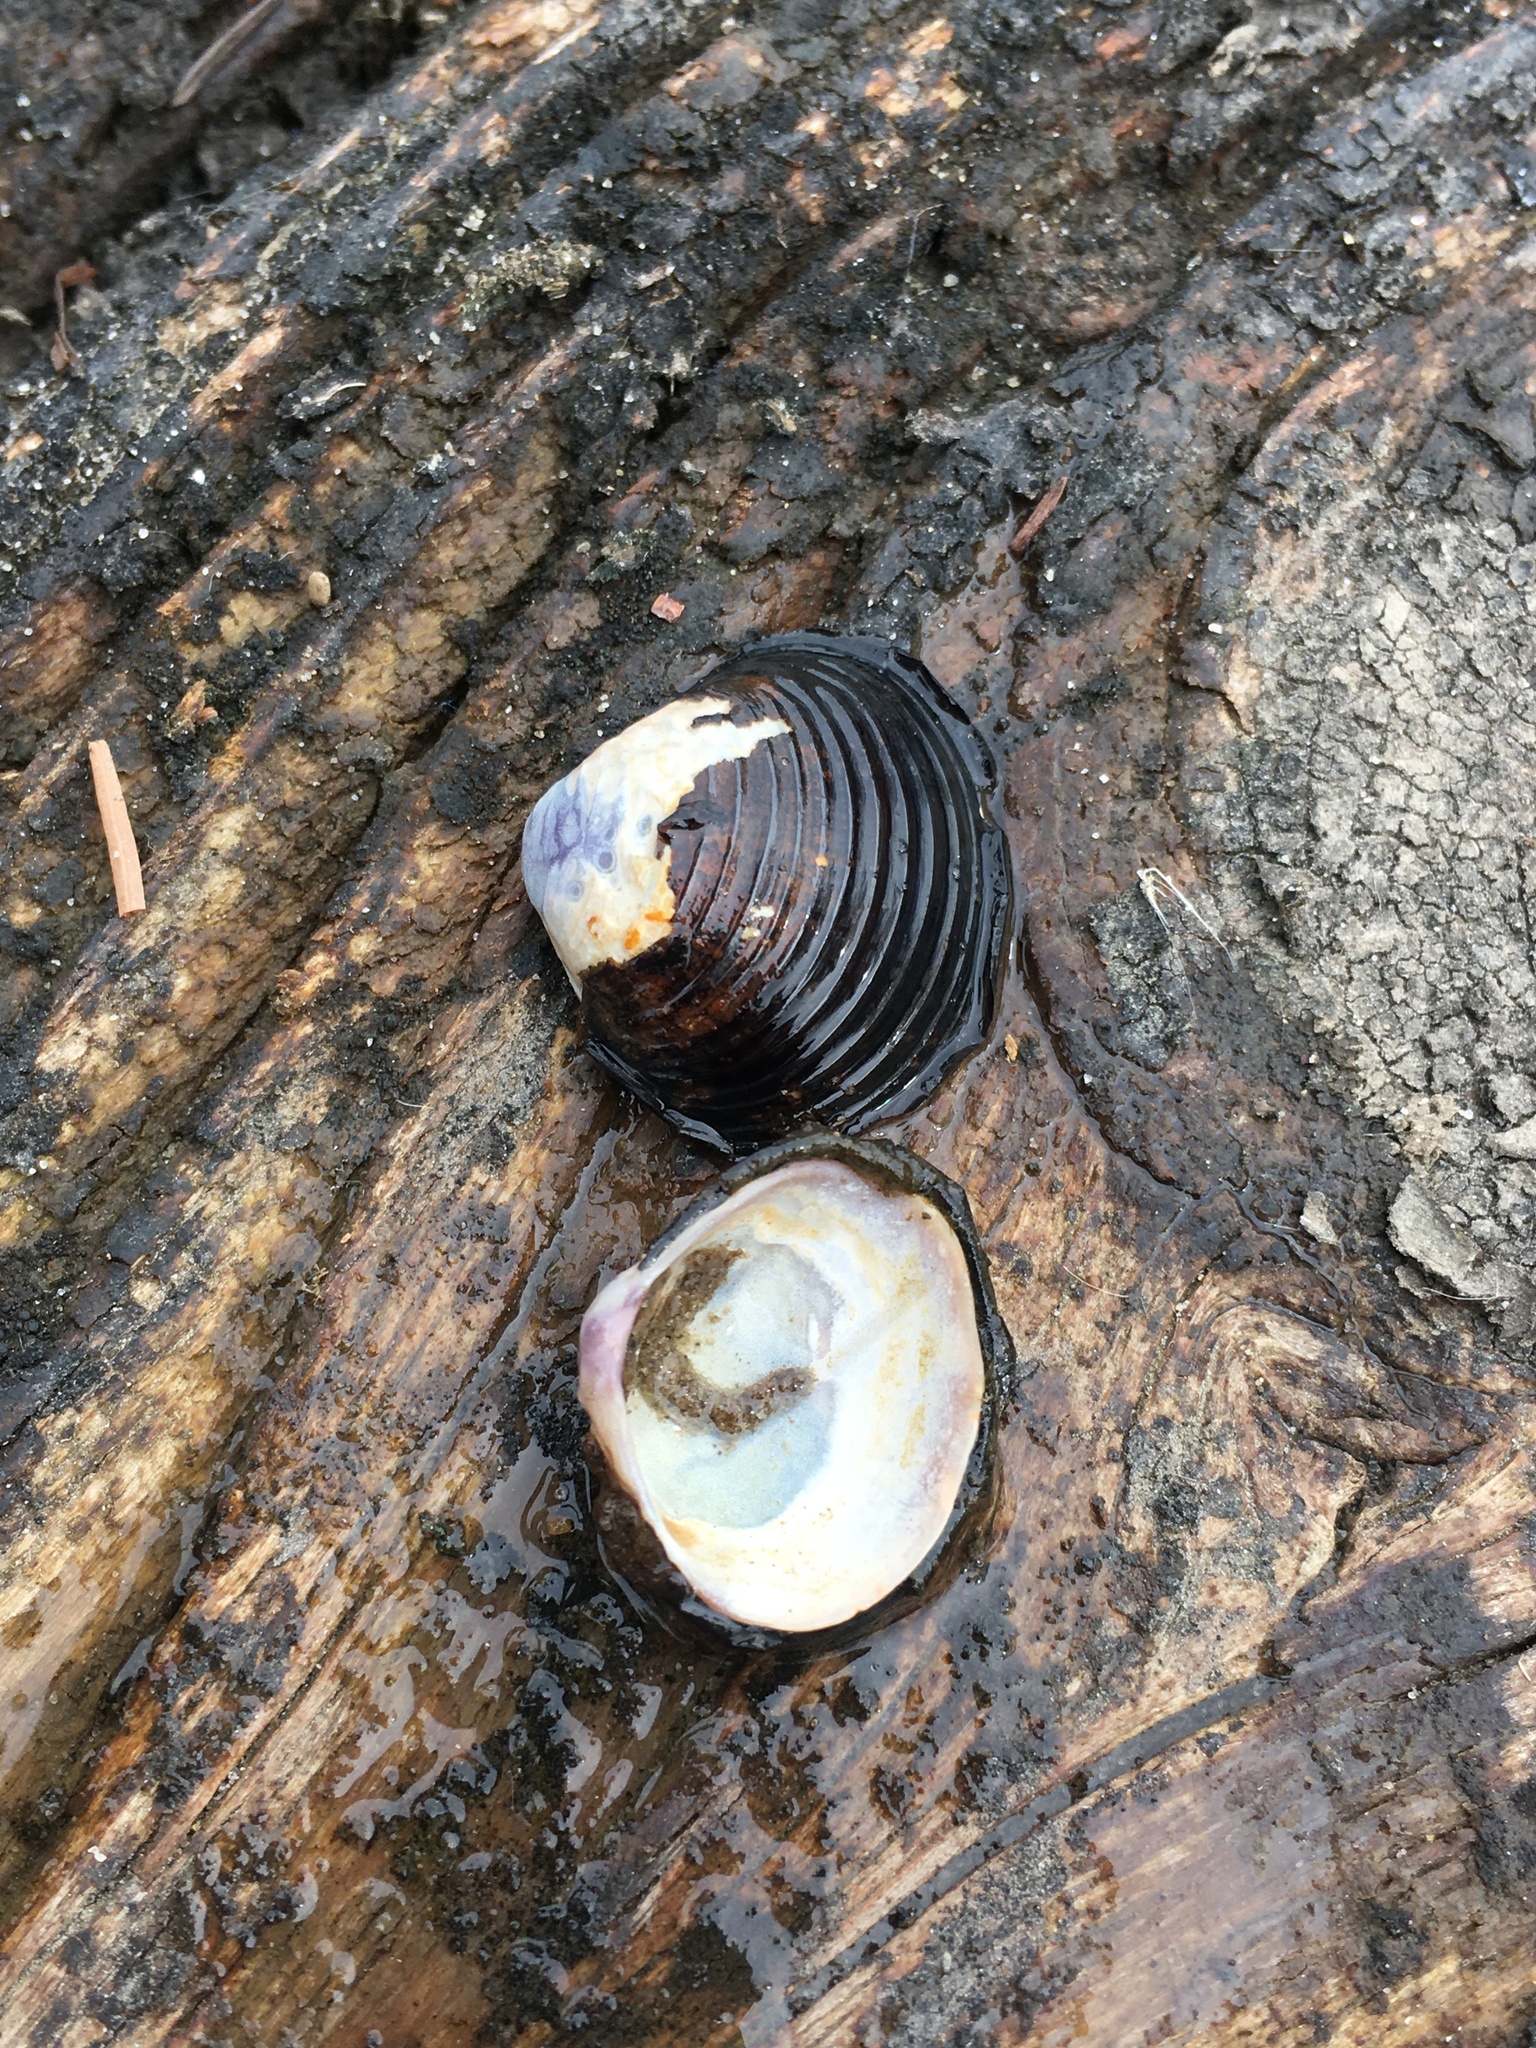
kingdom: Animalia
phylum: Mollusca
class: Bivalvia
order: Venerida
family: Cyrenidae
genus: Corbicula
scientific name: Corbicula fluminea
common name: Asian clam
